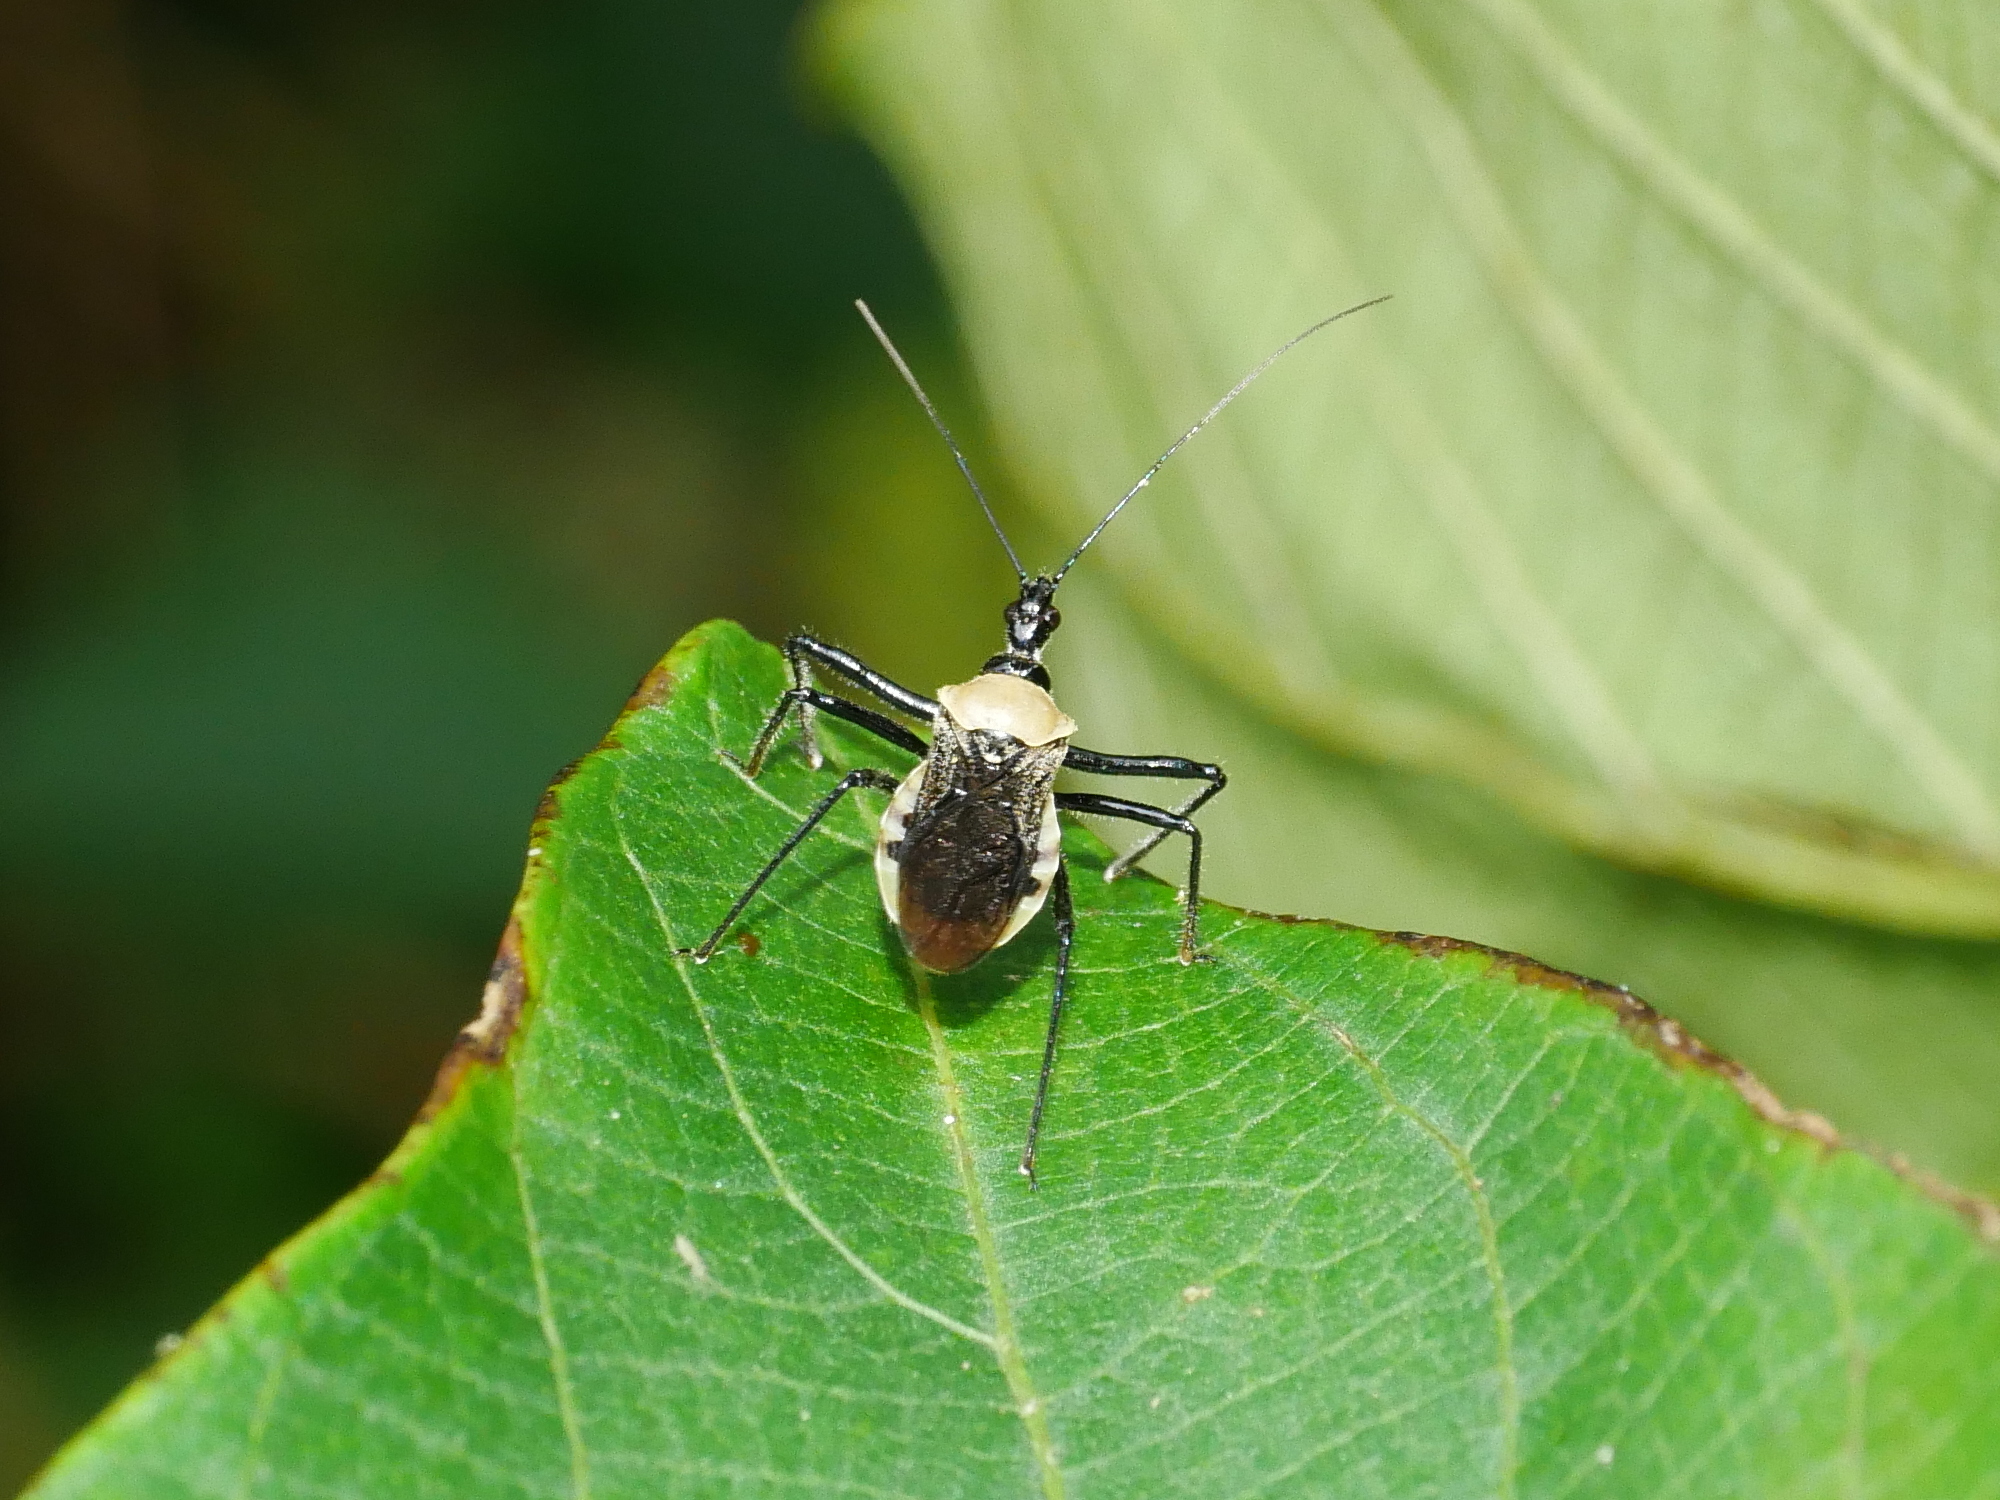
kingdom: Animalia
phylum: Arthropoda
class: Insecta
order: Hemiptera
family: Reduviidae
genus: Biasticus
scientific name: Biasticus flavinotus
